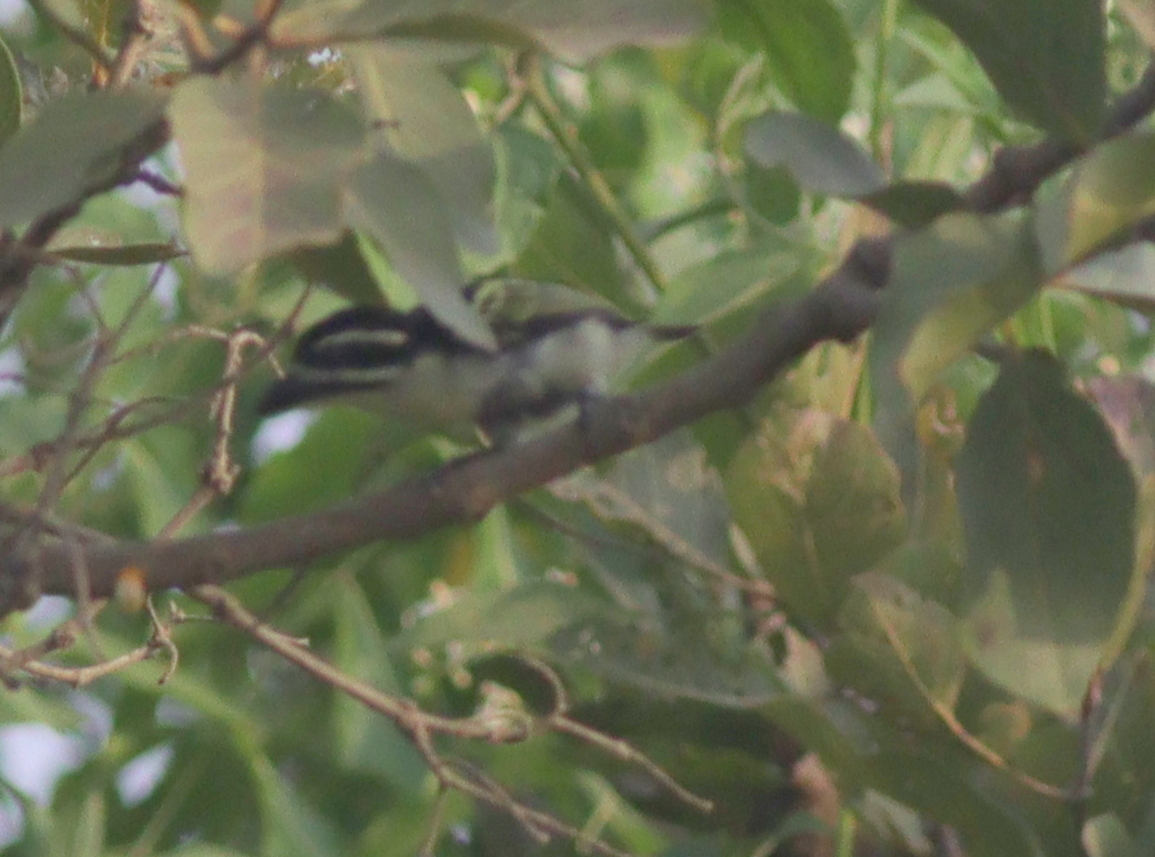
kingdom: Animalia
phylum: Chordata
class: Aves
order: Piciformes
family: Lybiidae
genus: Pogoniulus
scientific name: Pogoniulus bilineatus
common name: Yellow-rumped tinkerbird
